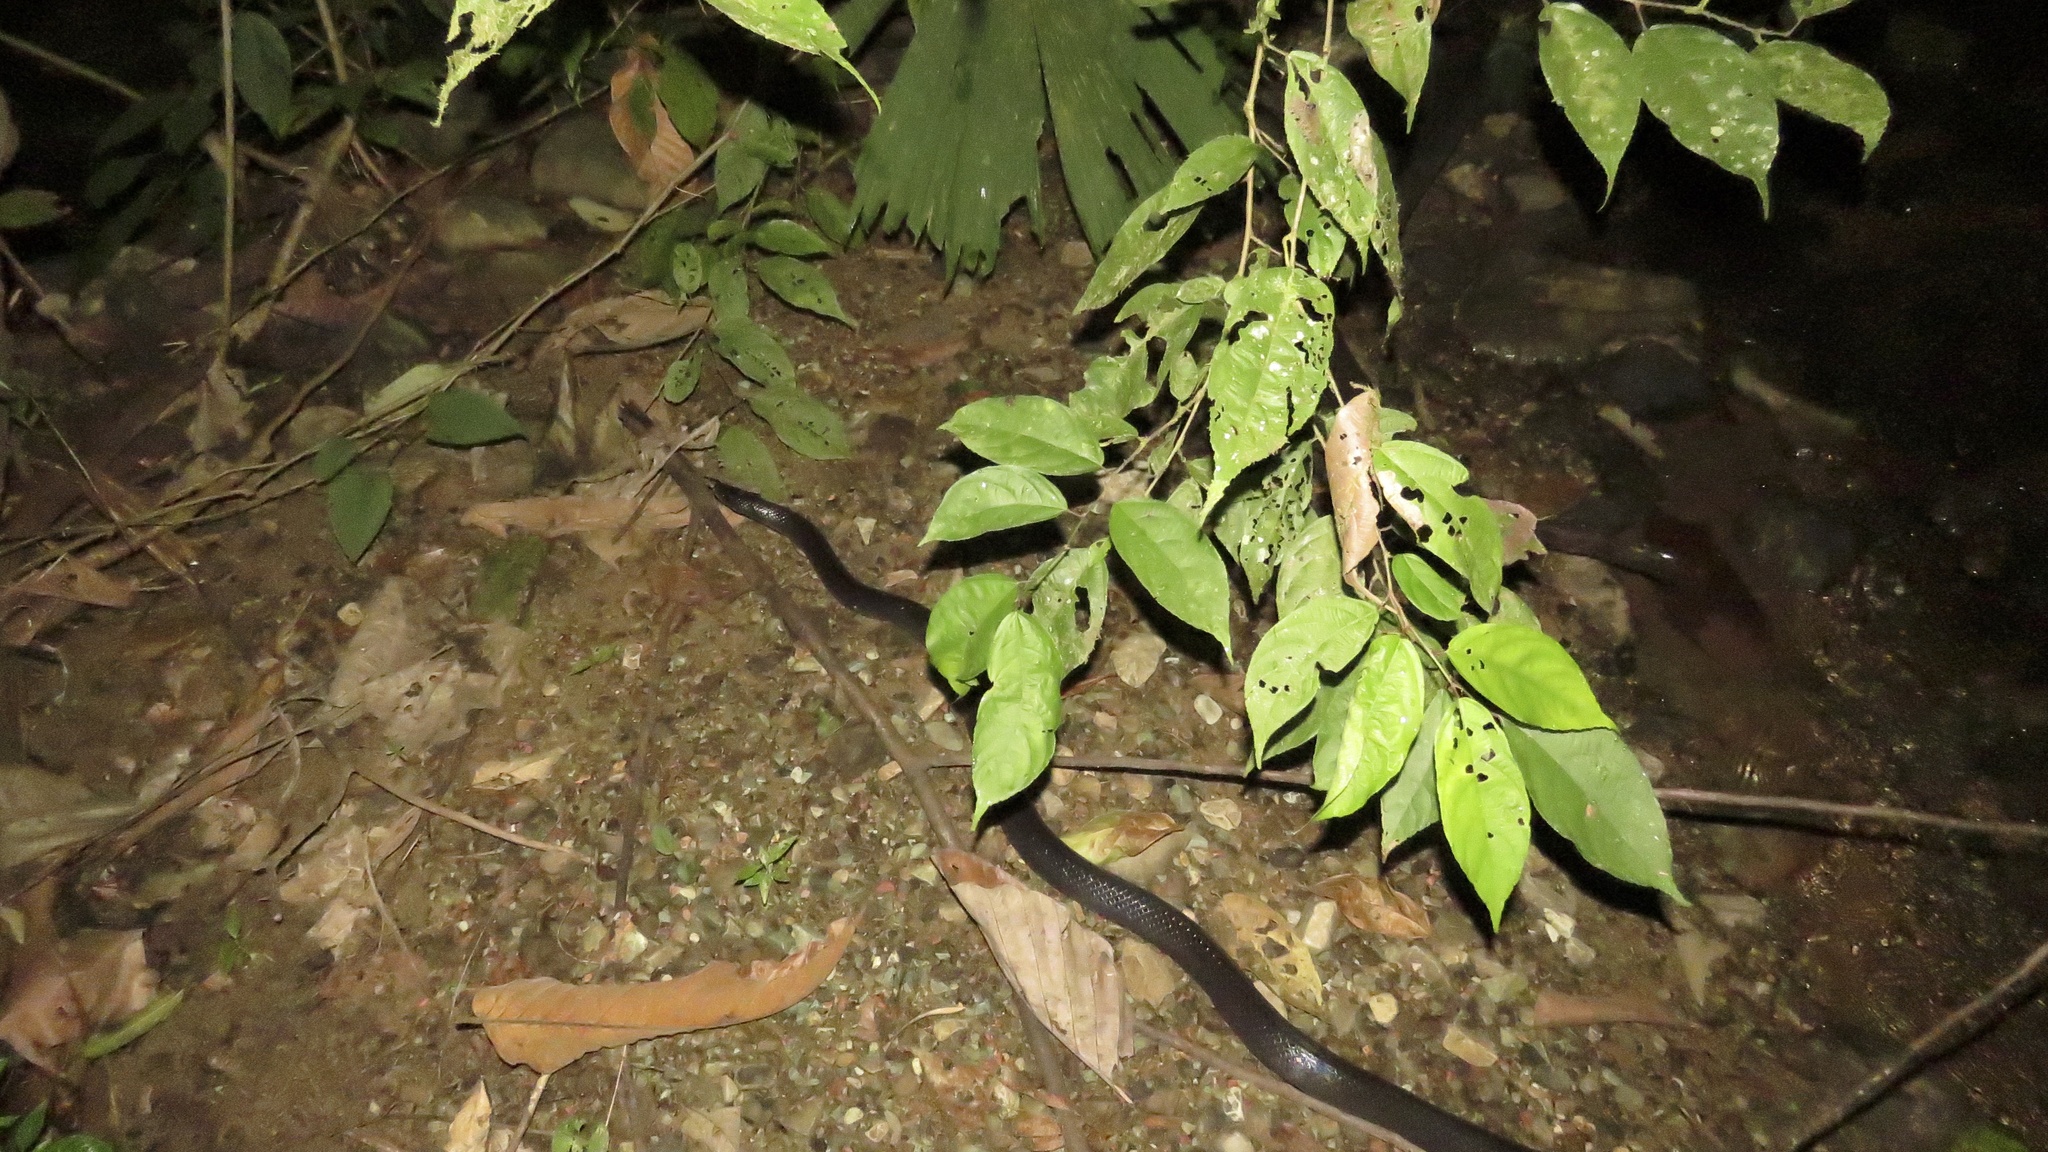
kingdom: Animalia
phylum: Chordata
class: Squamata
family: Colubridae
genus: Clelia
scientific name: Clelia clelia
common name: Mussurana
